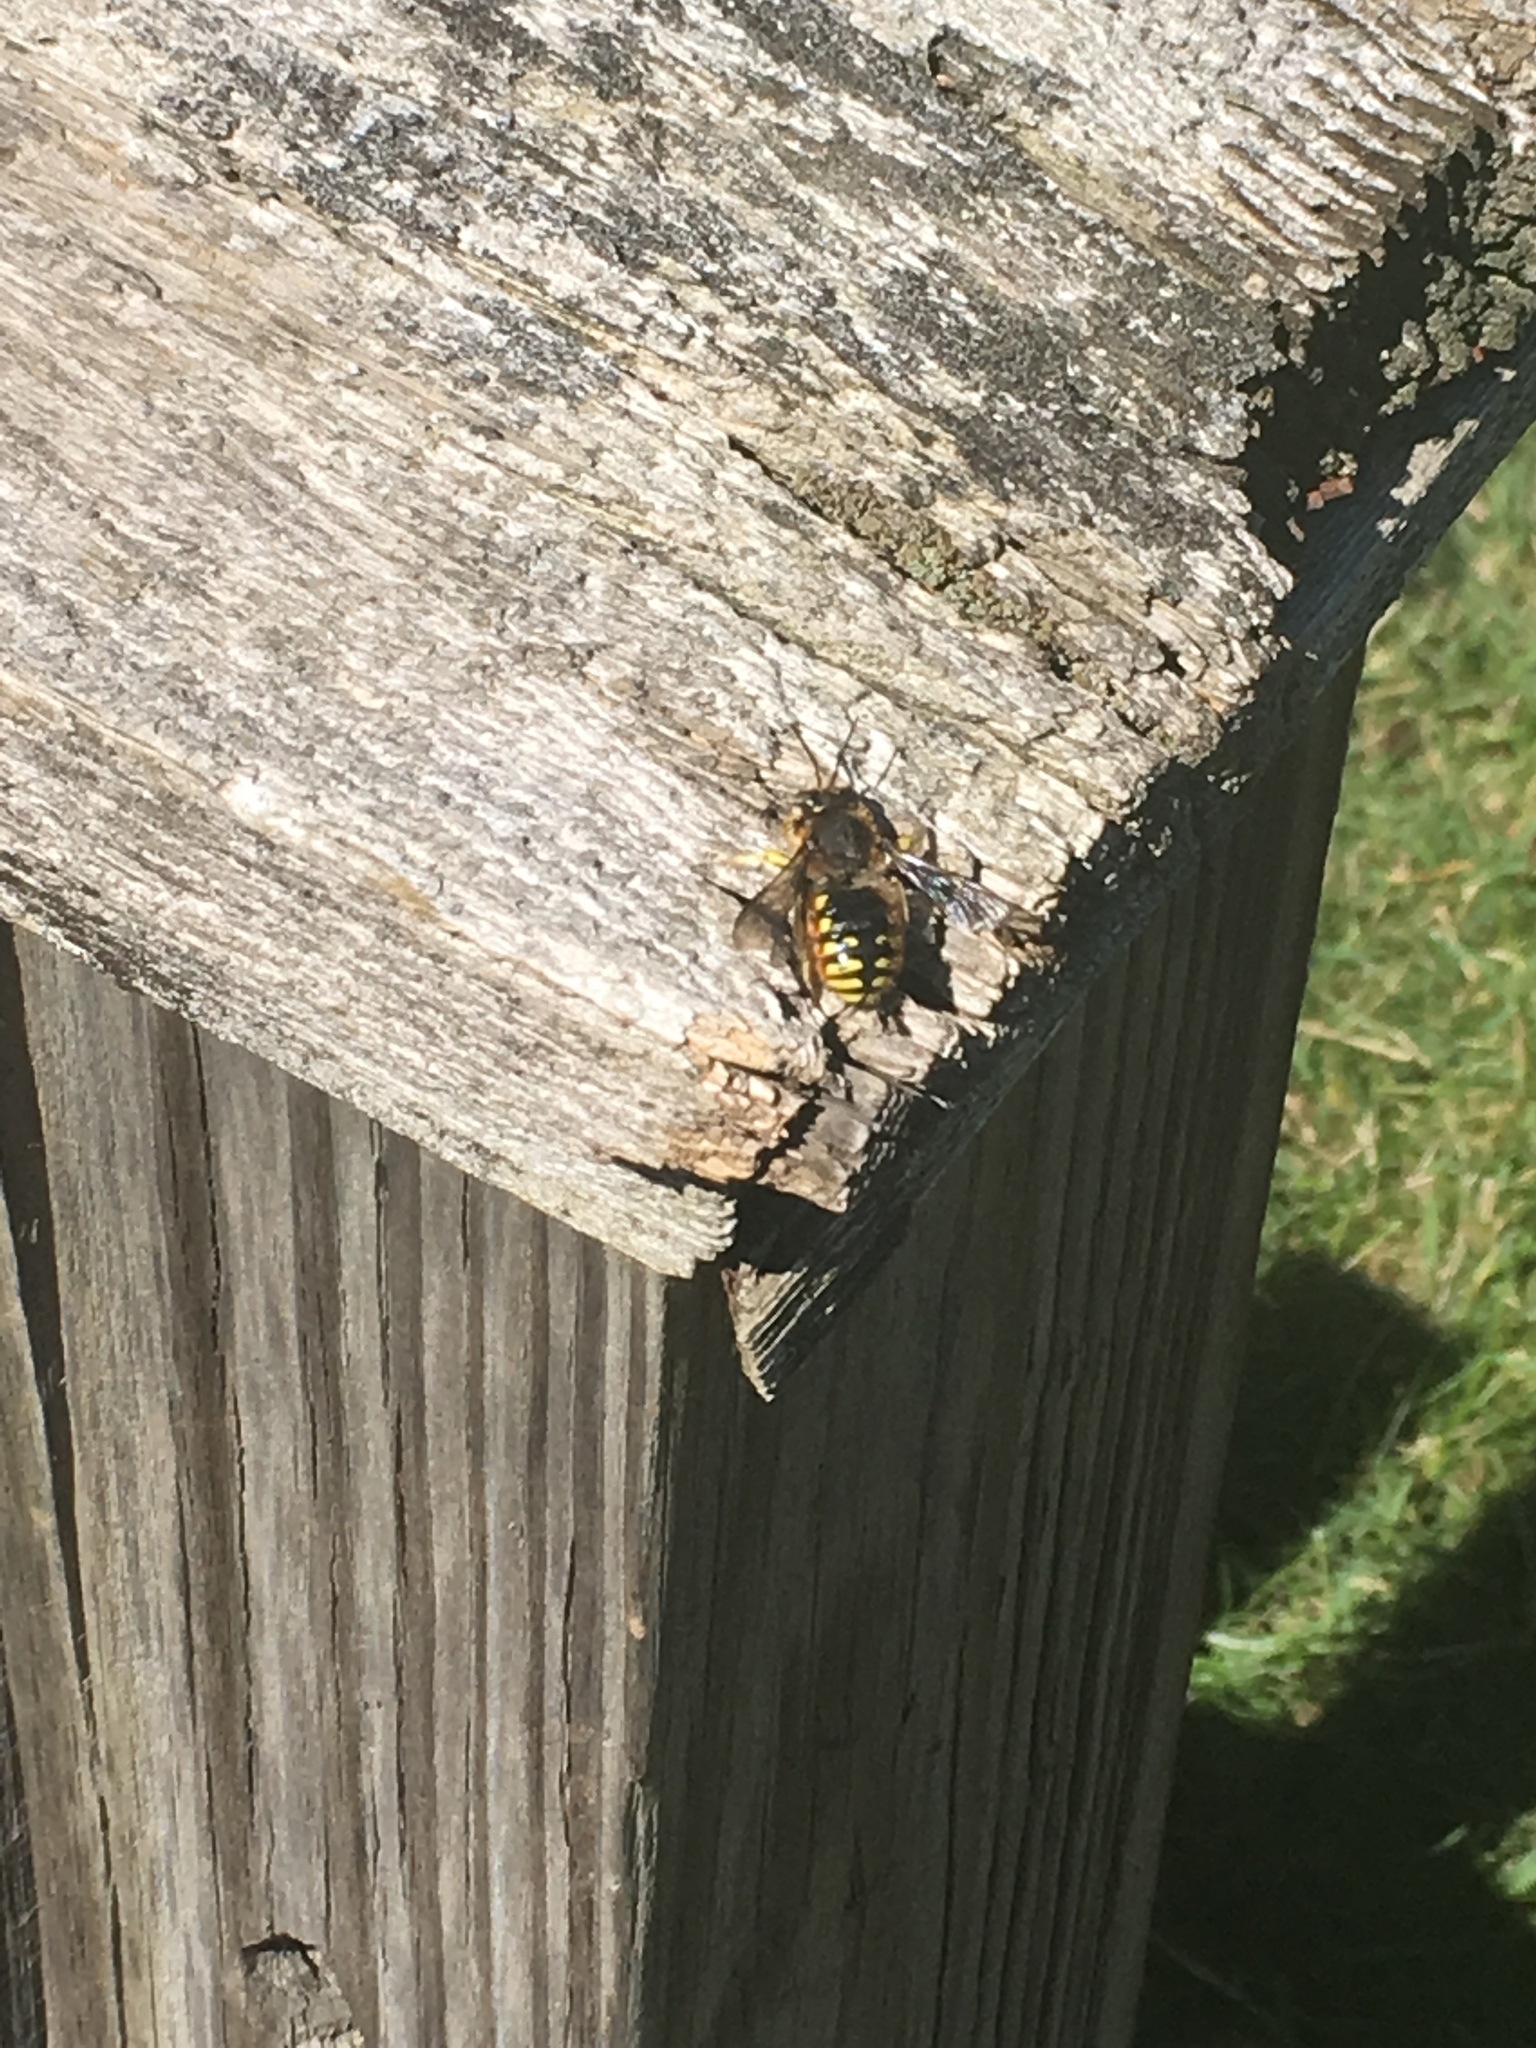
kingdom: Animalia
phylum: Arthropoda
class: Insecta
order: Hymenoptera
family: Megachilidae
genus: Anthidium
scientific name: Anthidium manicatum
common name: Wool carder bee
